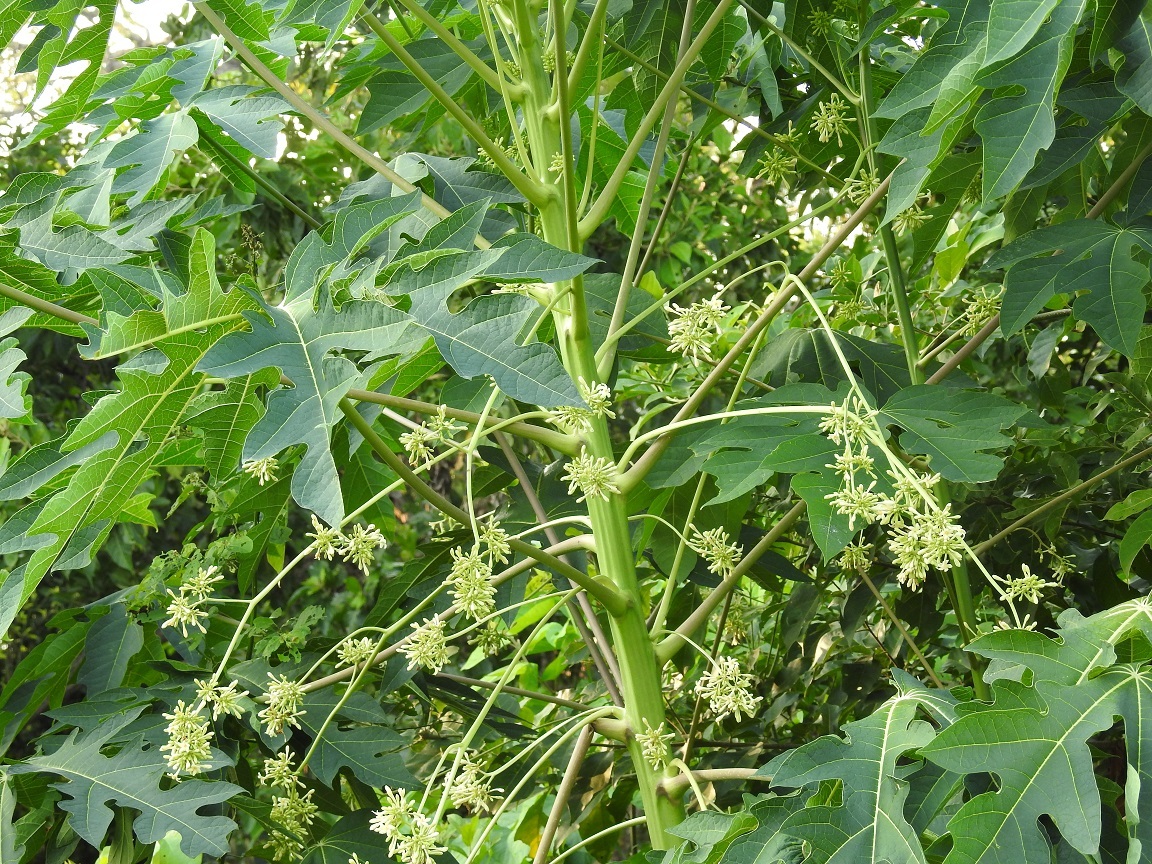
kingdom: Plantae
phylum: Tracheophyta
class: Magnoliopsida
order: Brassicales
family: Caricaceae
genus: Carica
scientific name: Carica papaya
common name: Papaya
